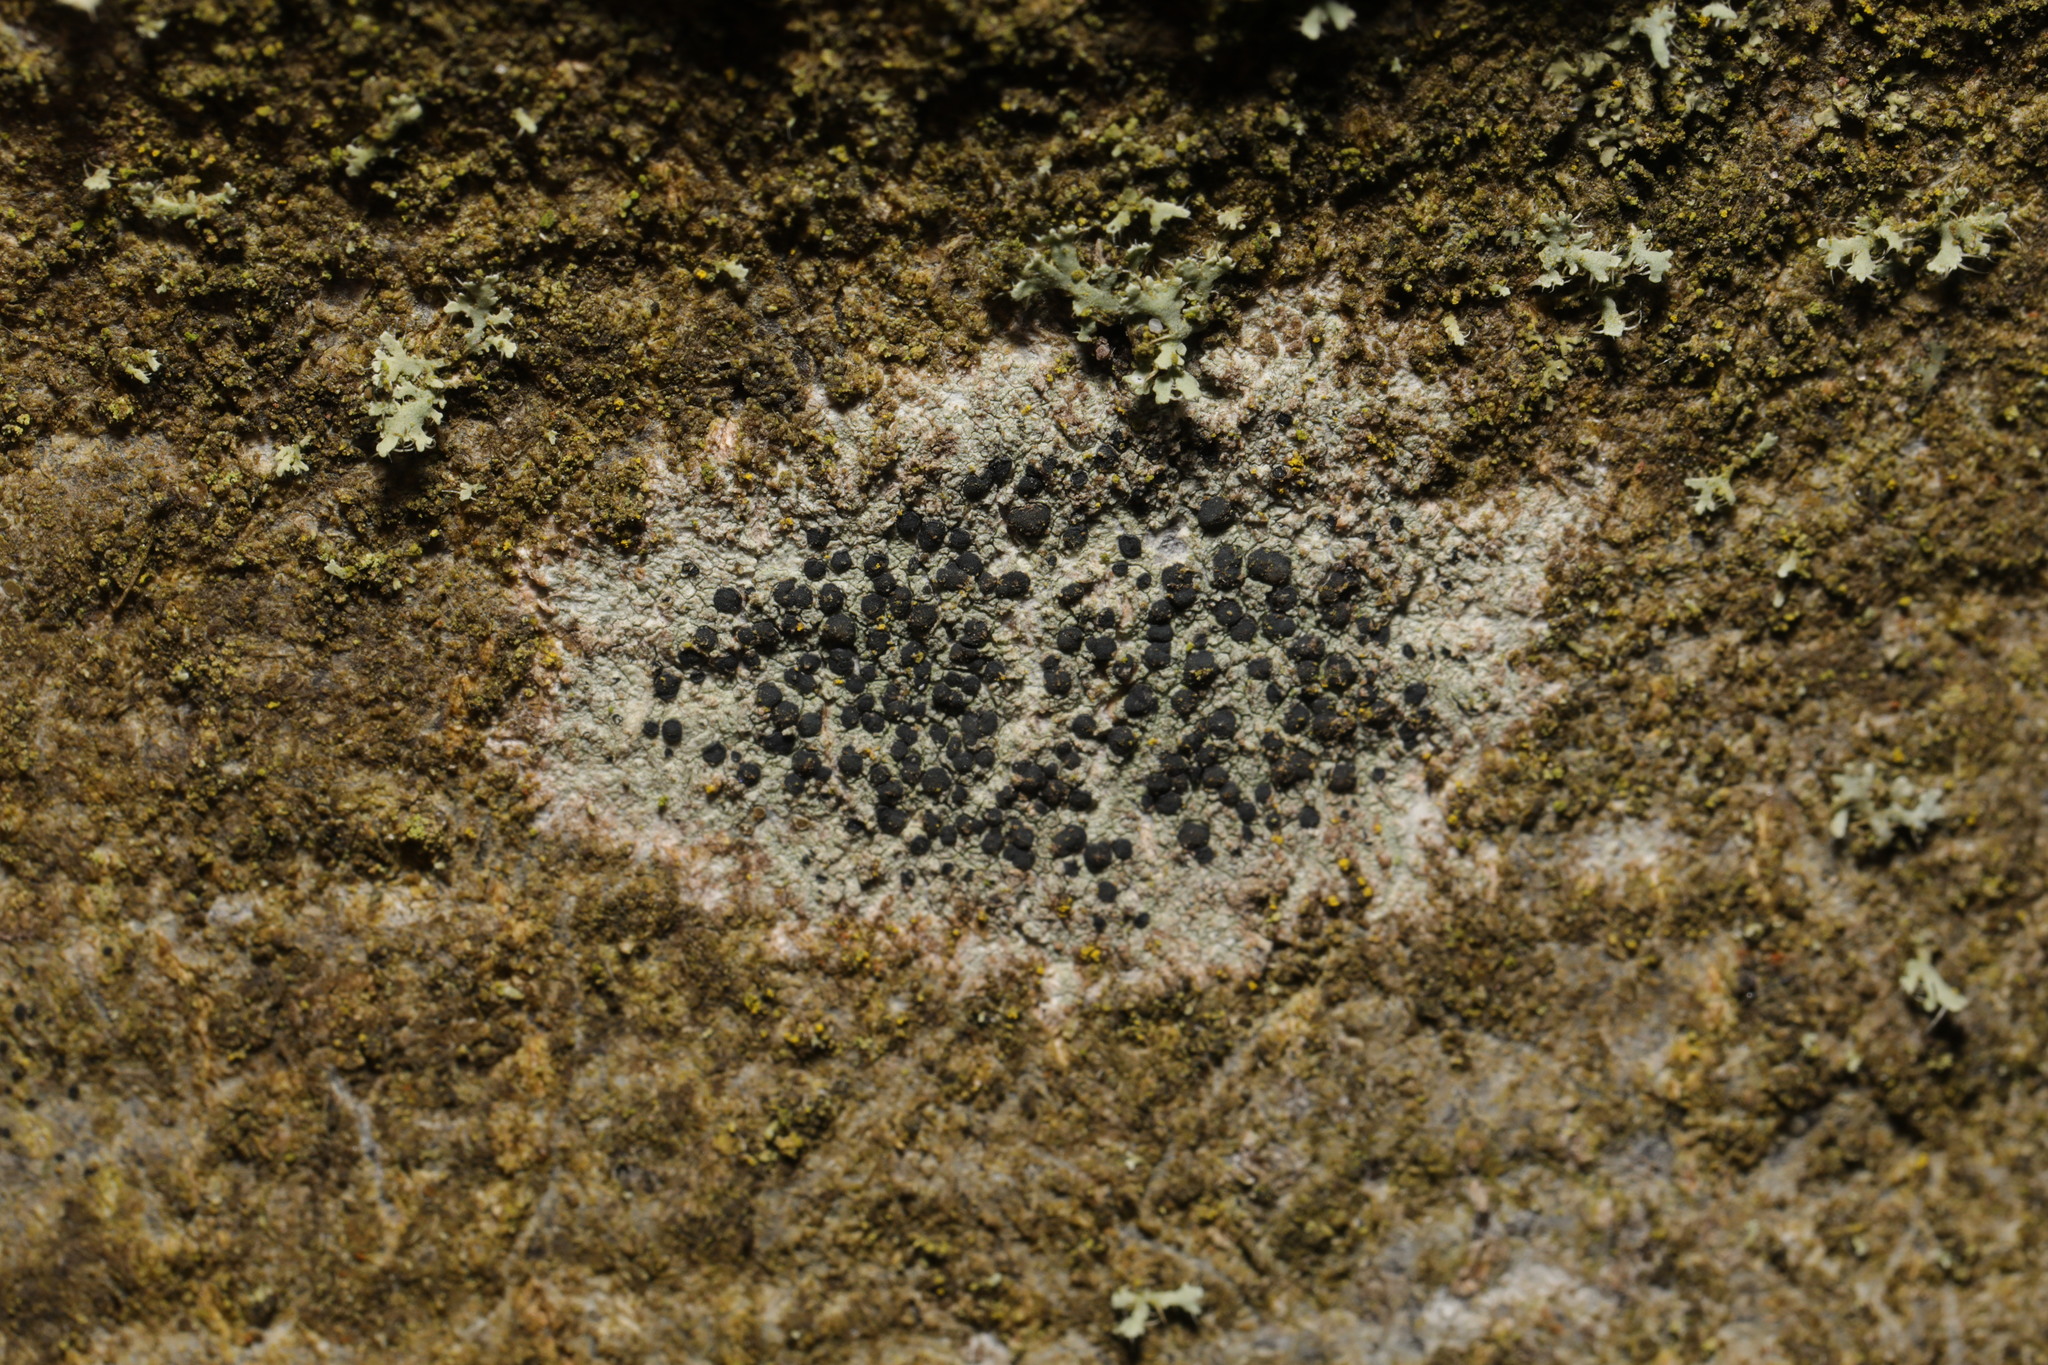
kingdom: Fungi
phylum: Ascomycota
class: Lecanoromycetes
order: Lecanorales
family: Lecanoraceae
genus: Lecidella
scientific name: Lecidella elaeochroma
